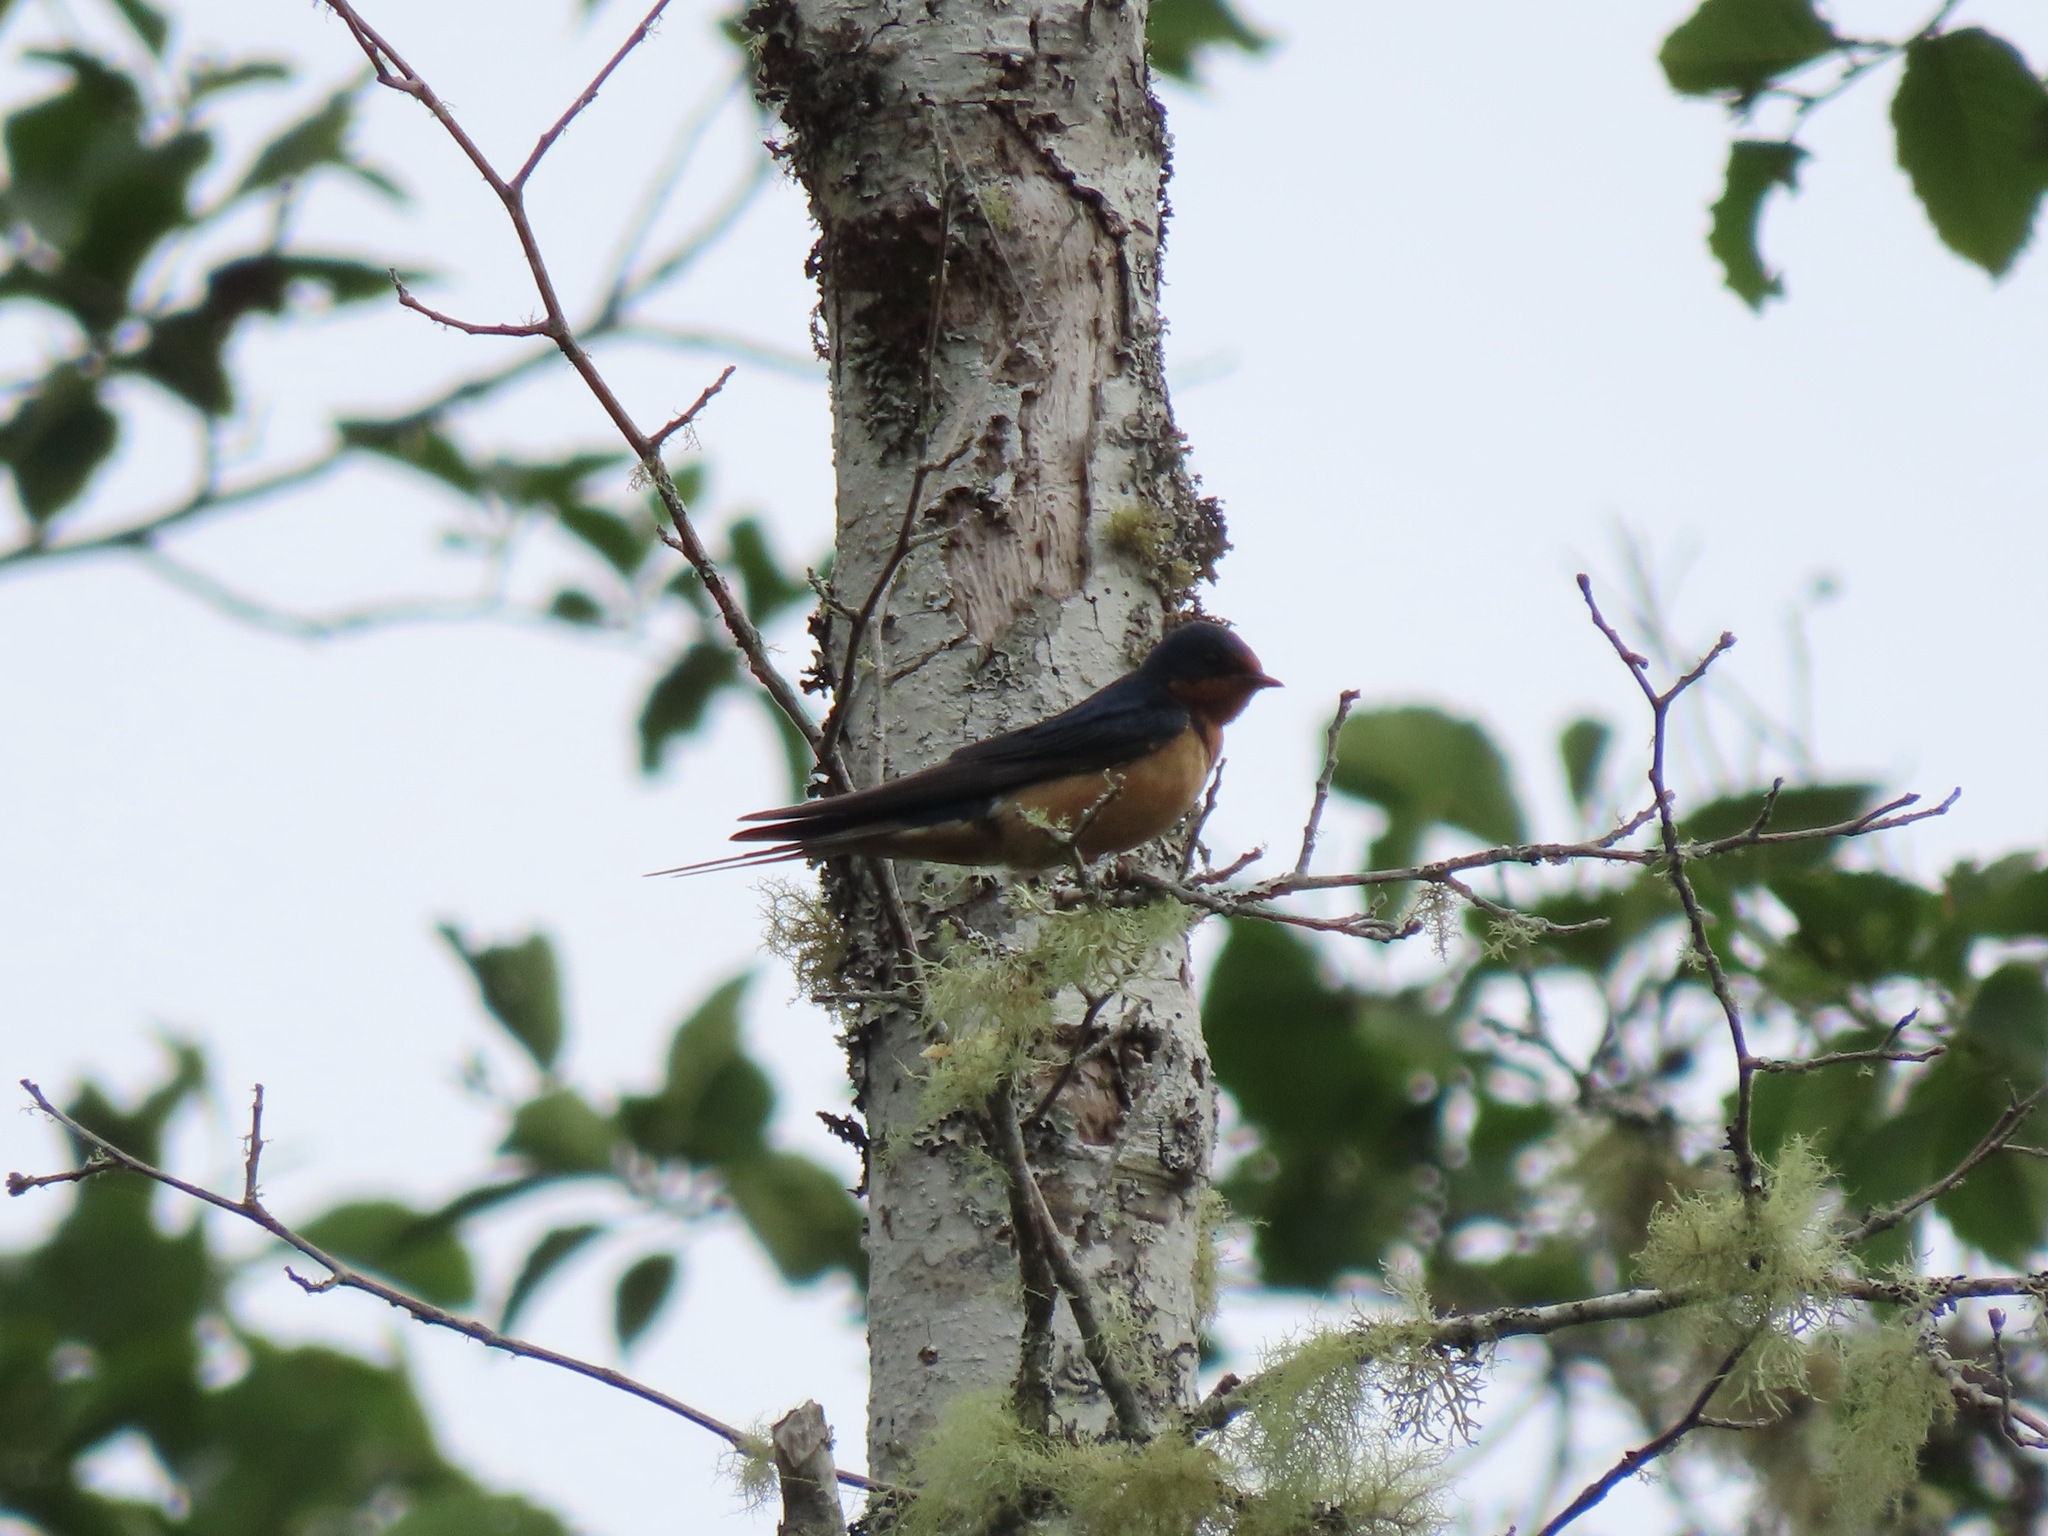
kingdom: Animalia
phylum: Chordata
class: Aves
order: Passeriformes
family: Hirundinidae
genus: Hirundo
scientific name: Hirundo rustica
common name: Barn swallow
